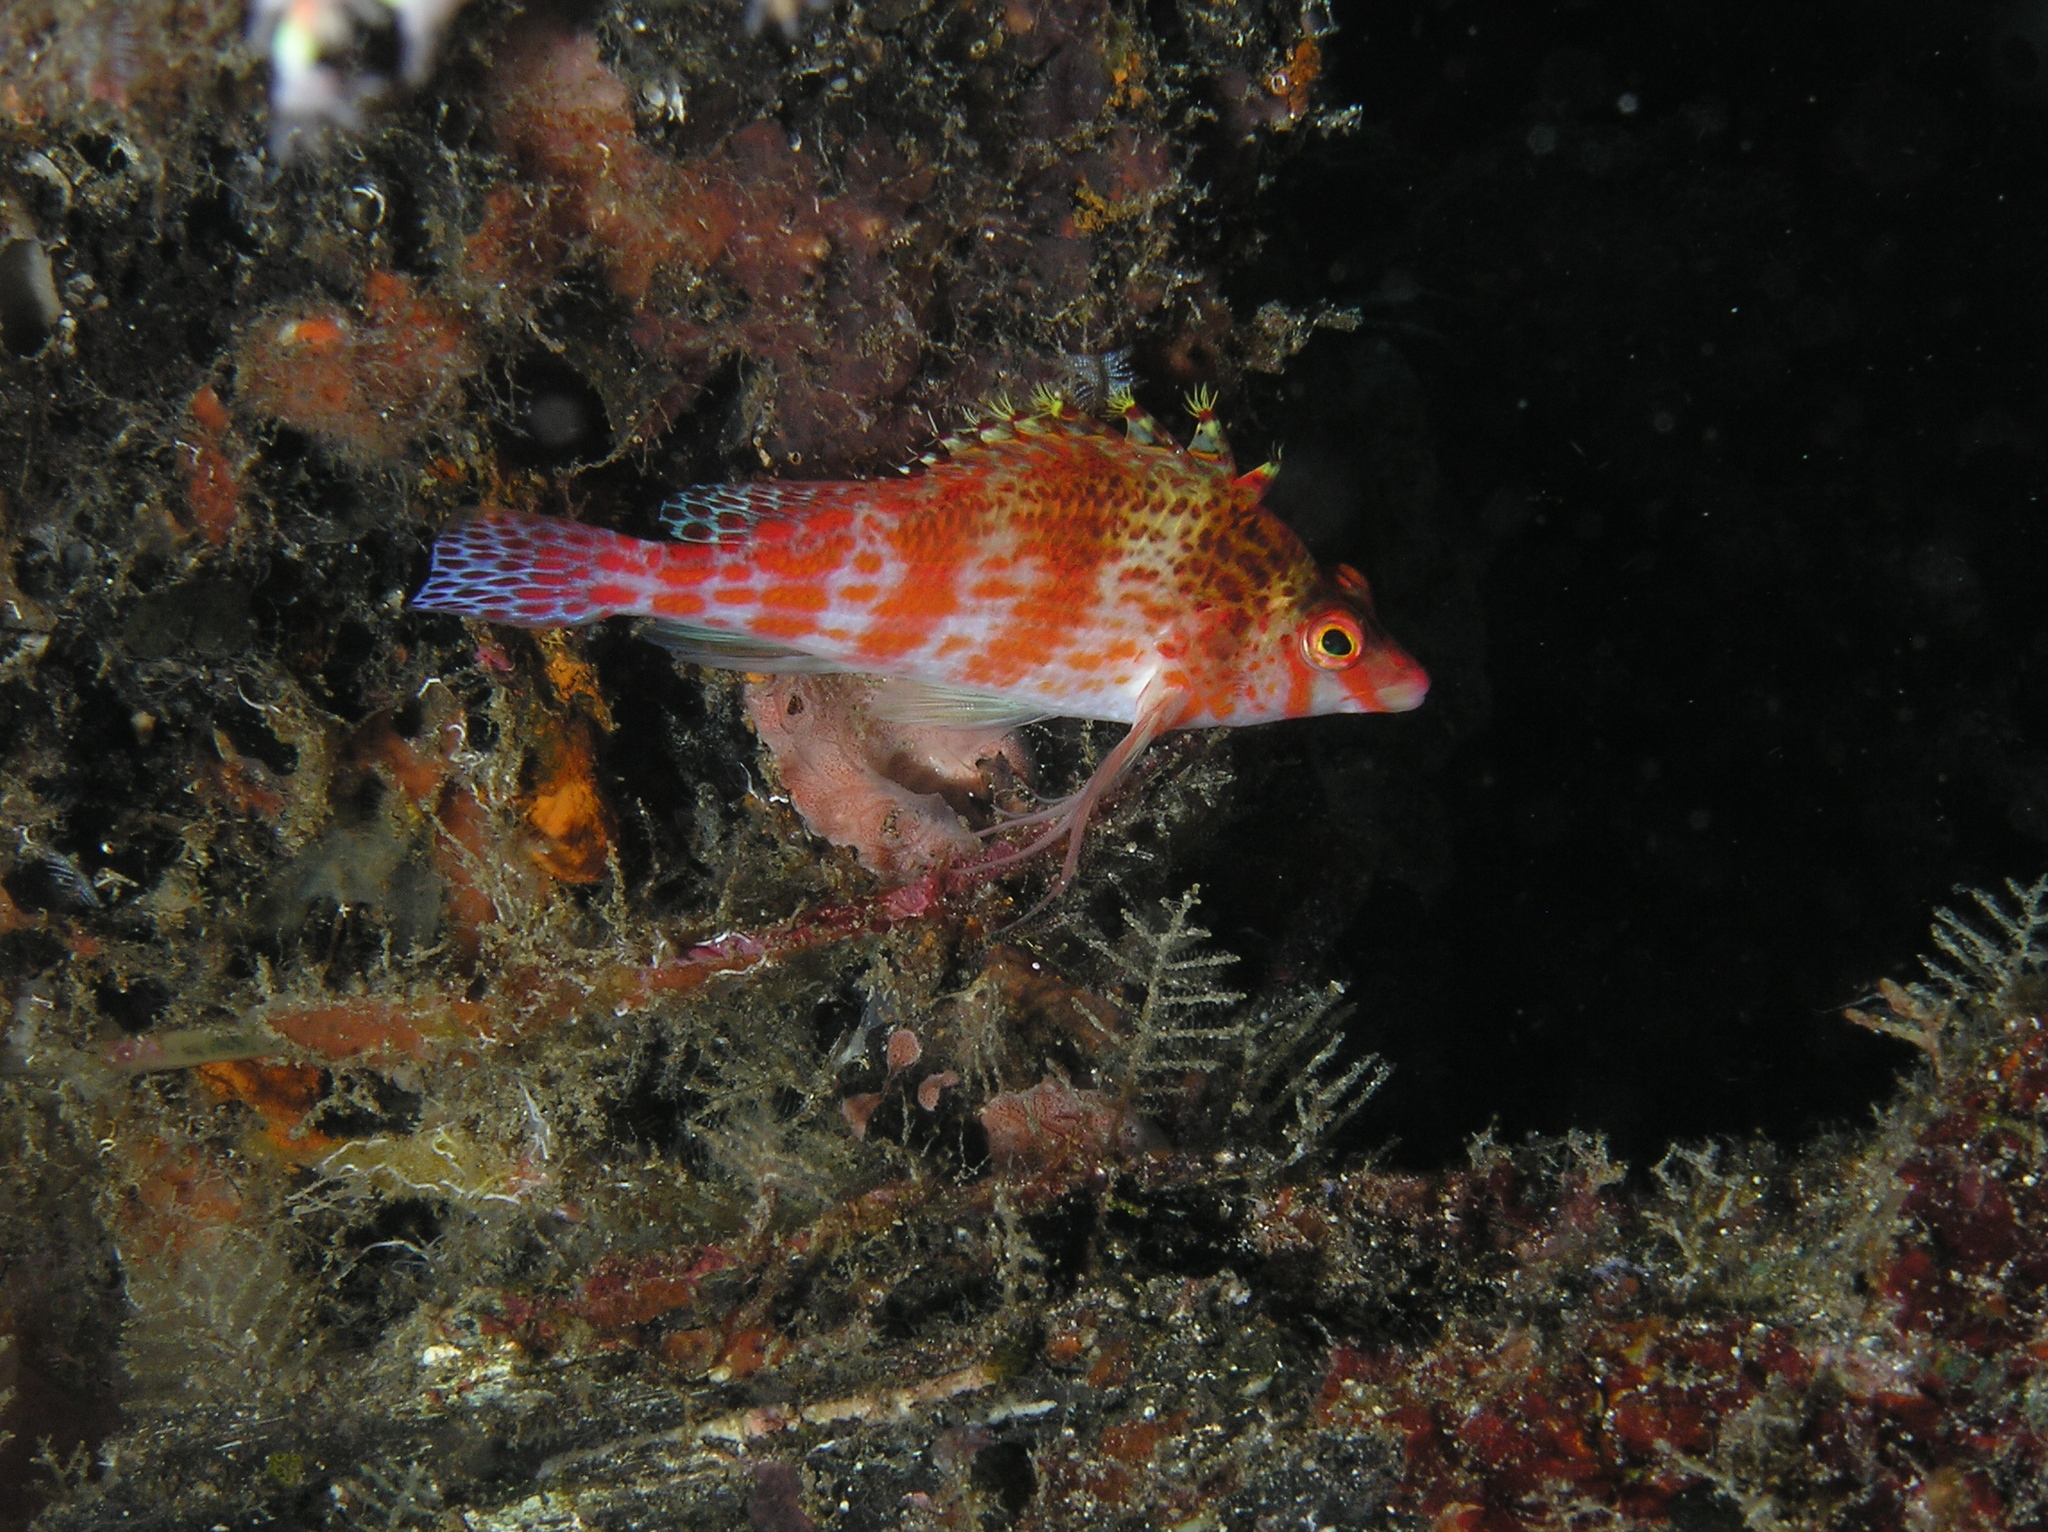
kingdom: Animalia
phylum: Chordata
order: Perciformes
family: Cirrhitidae
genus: Cirrhitichthys
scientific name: Cirrhitichthys falco
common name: Coral hawkfish
